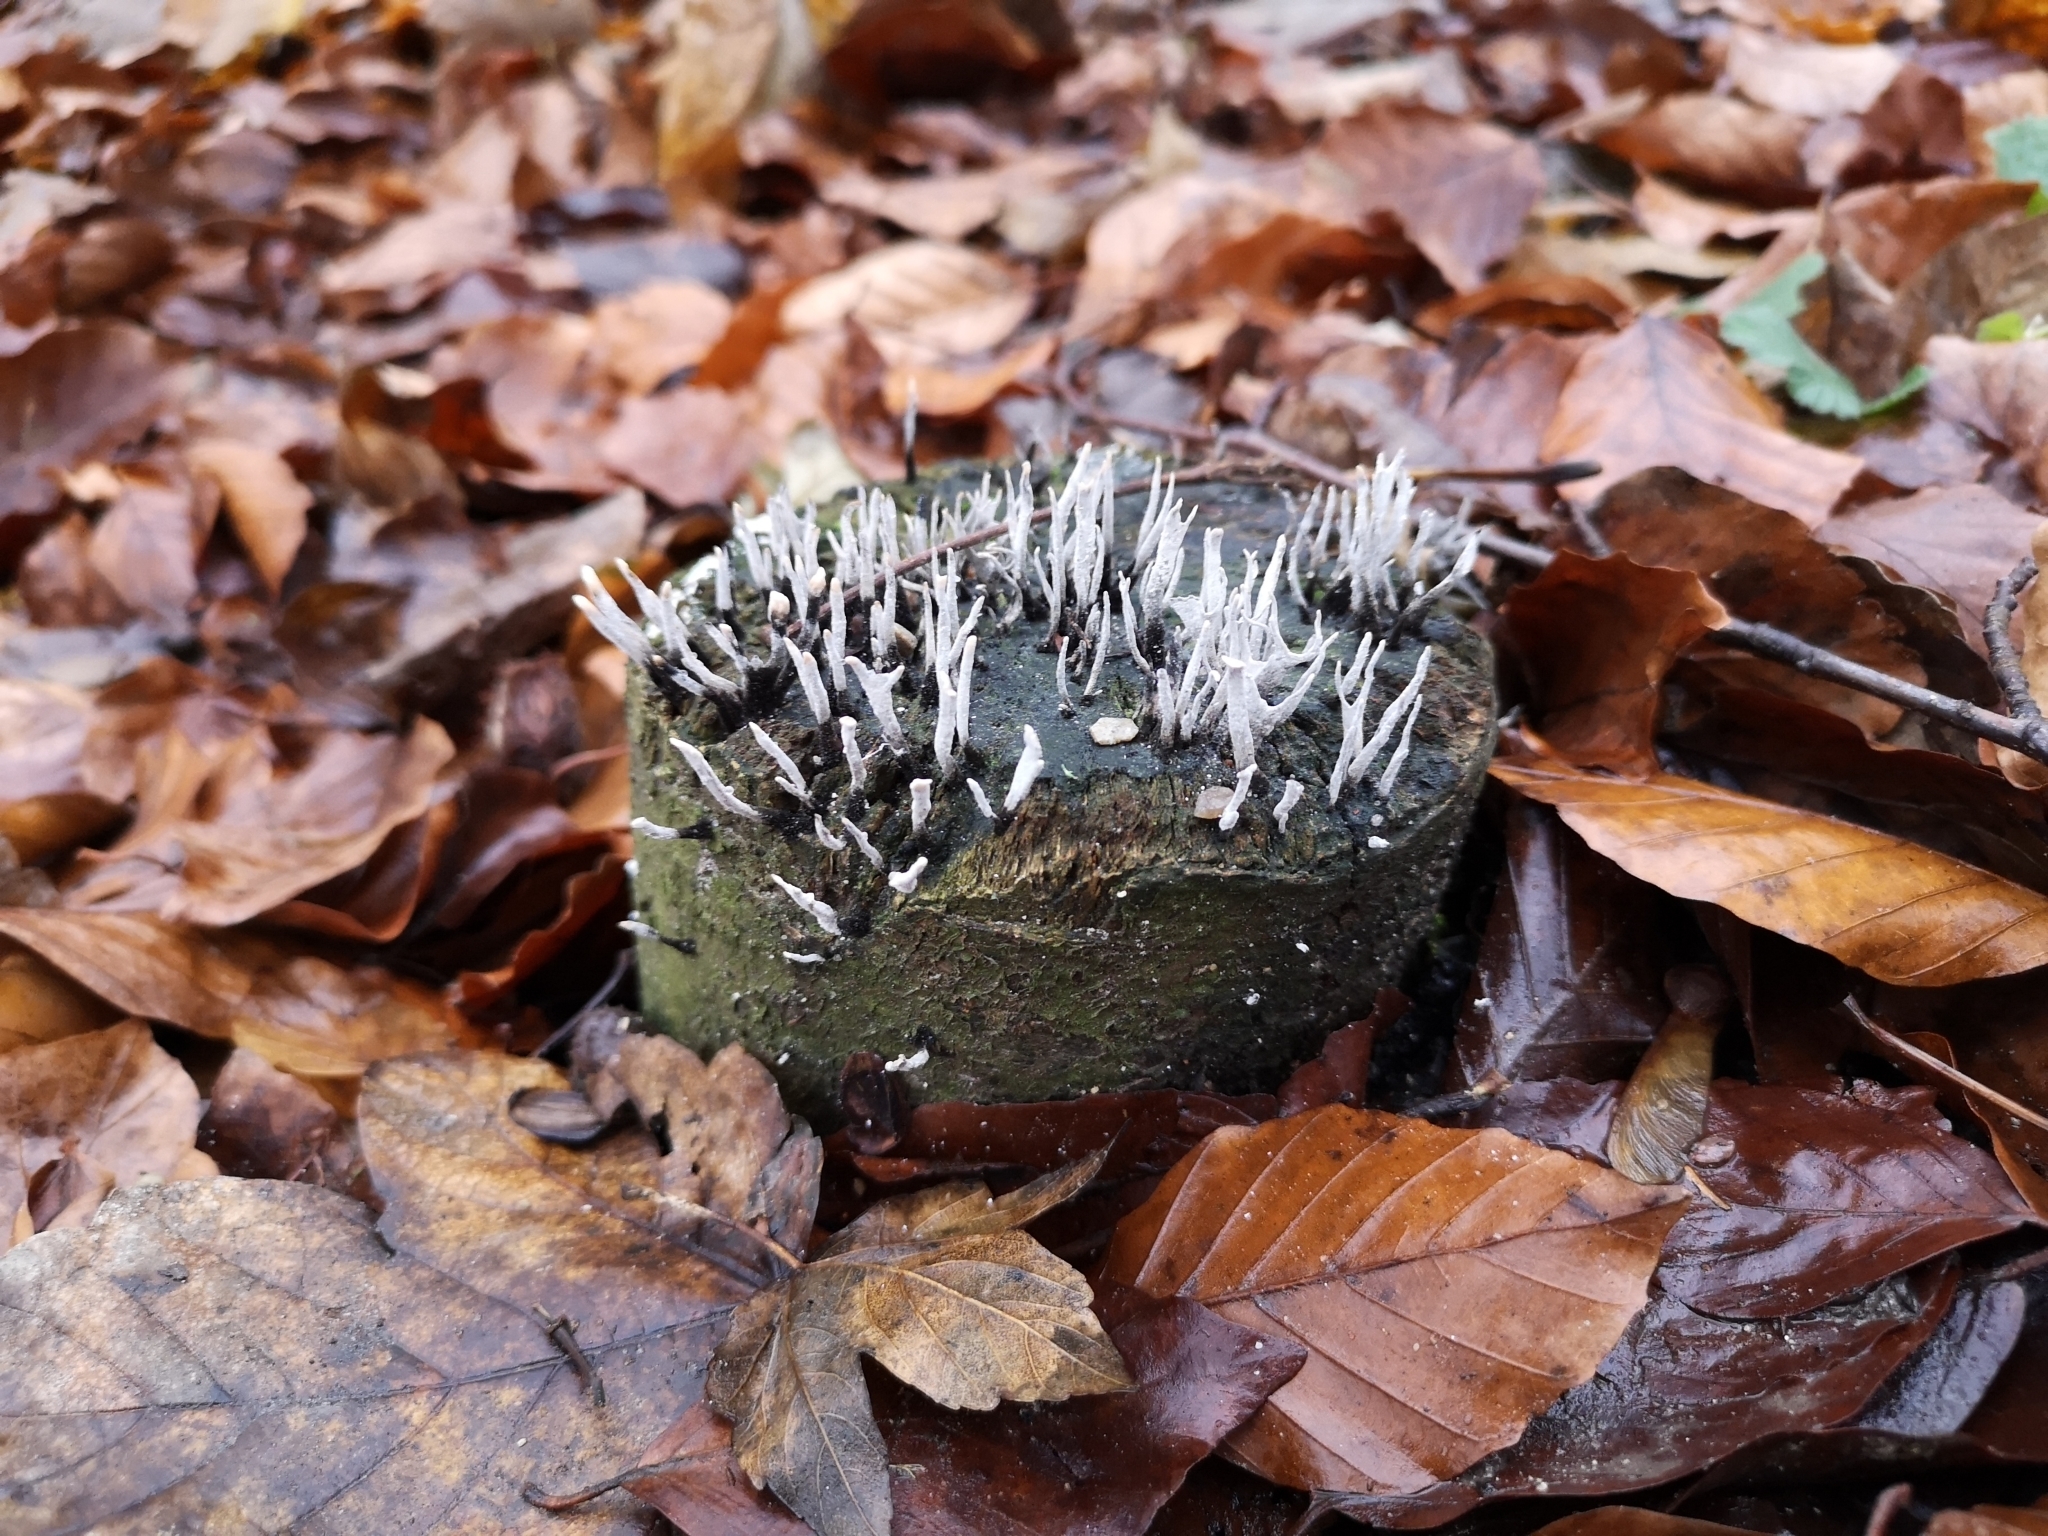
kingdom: Fungi
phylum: Ascomycota
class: Sordariomycetes
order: Xylariales
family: Xylariaceae
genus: Xylaria
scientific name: Xylaria hypoxylon
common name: Candle-snuff fungus
